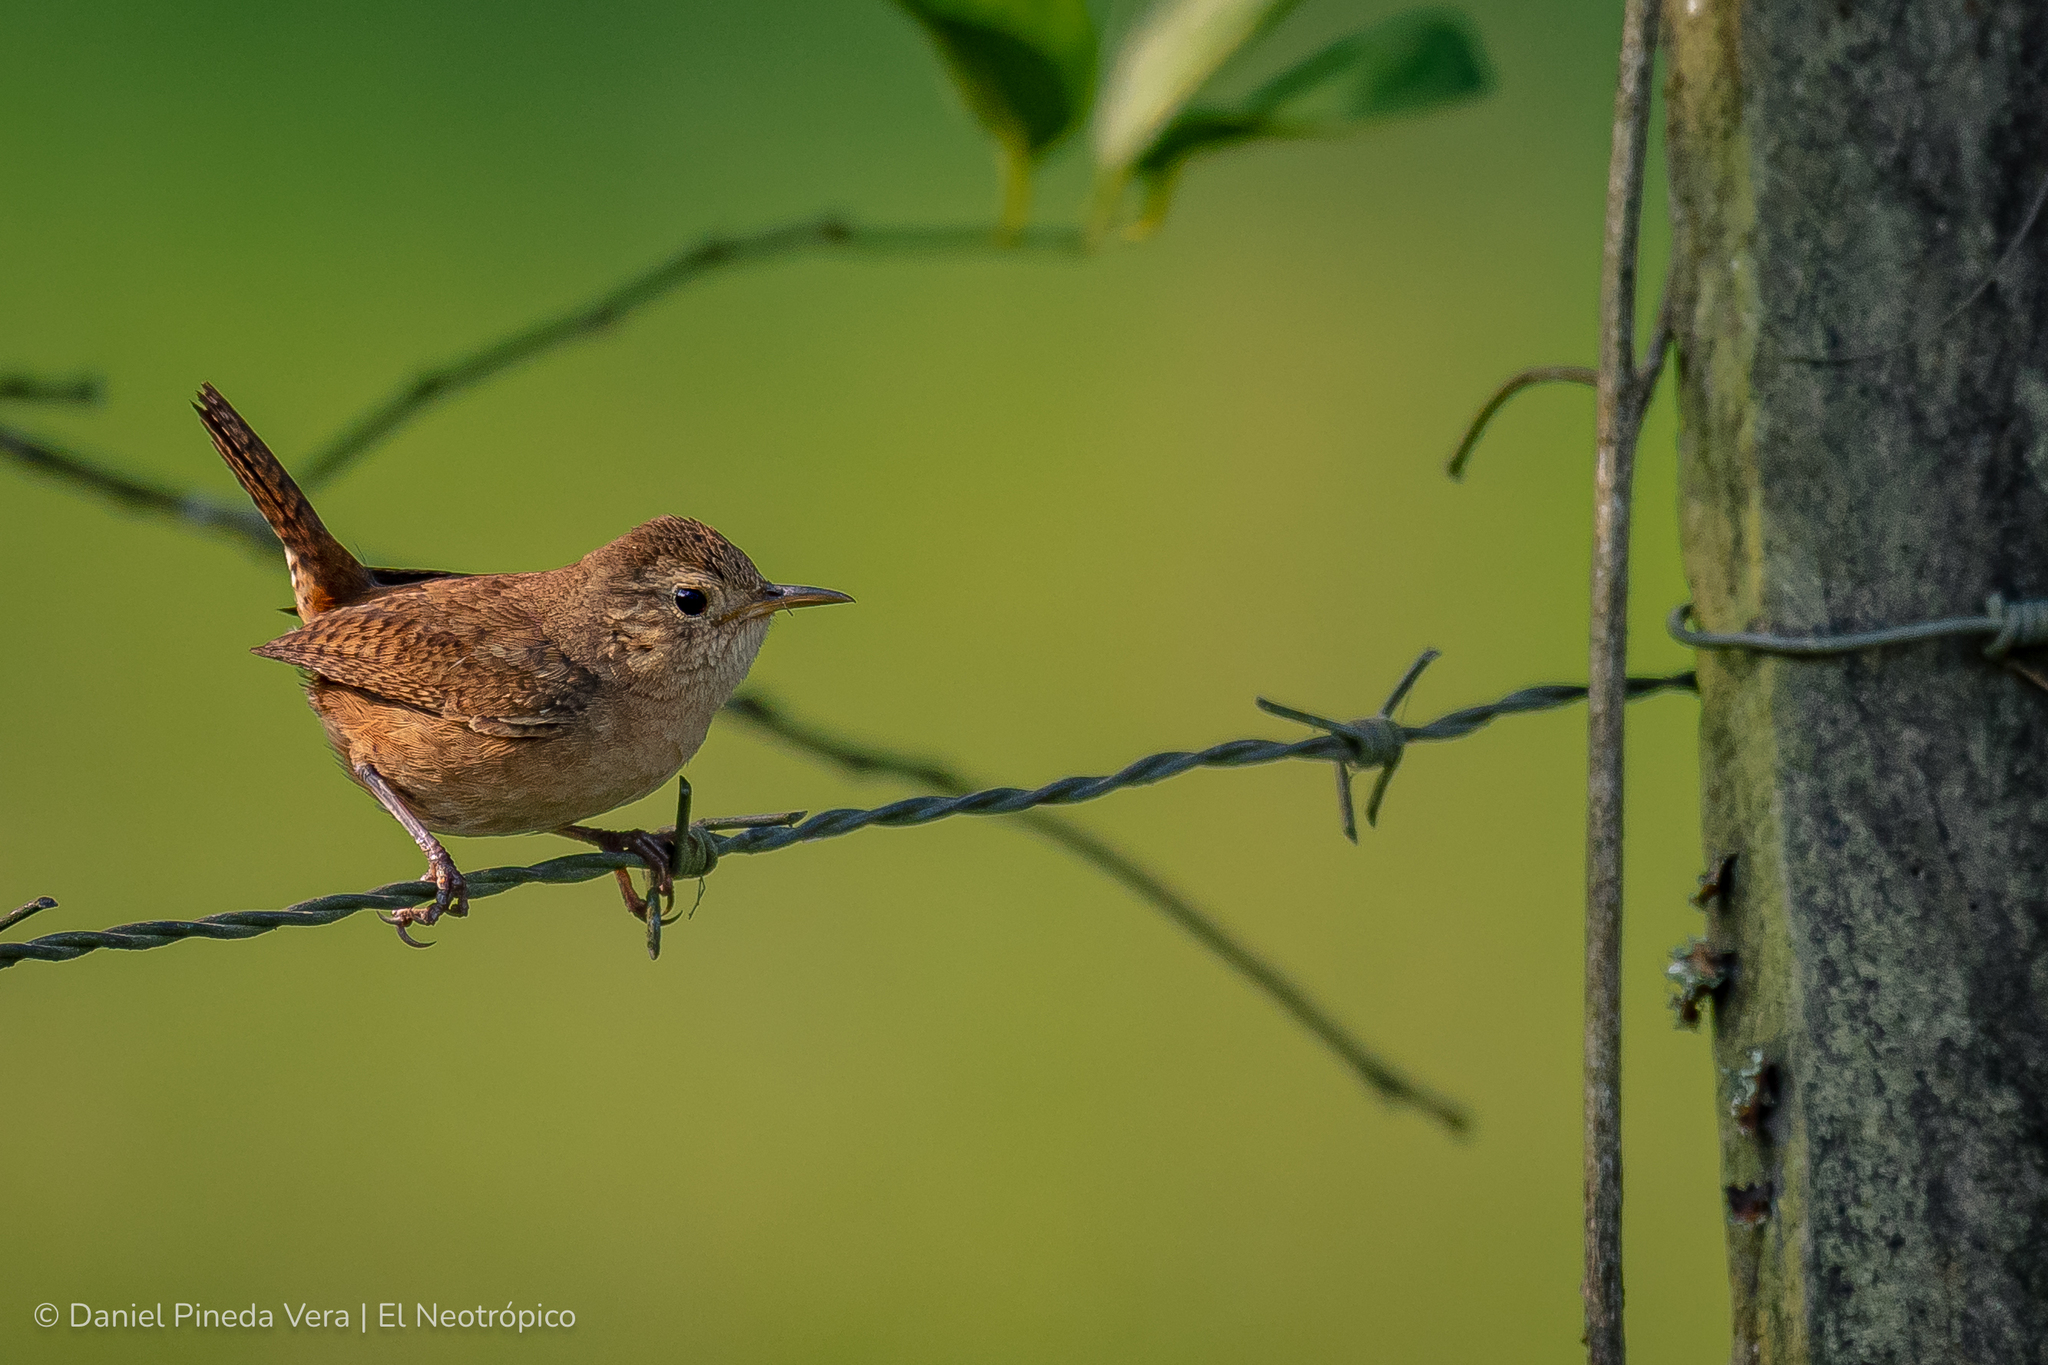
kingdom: Animalia
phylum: Chordata
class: Aves
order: Passeriformes
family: Troglodytidae
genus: Troglodytes
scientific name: Troglodytes aedon
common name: House wren
